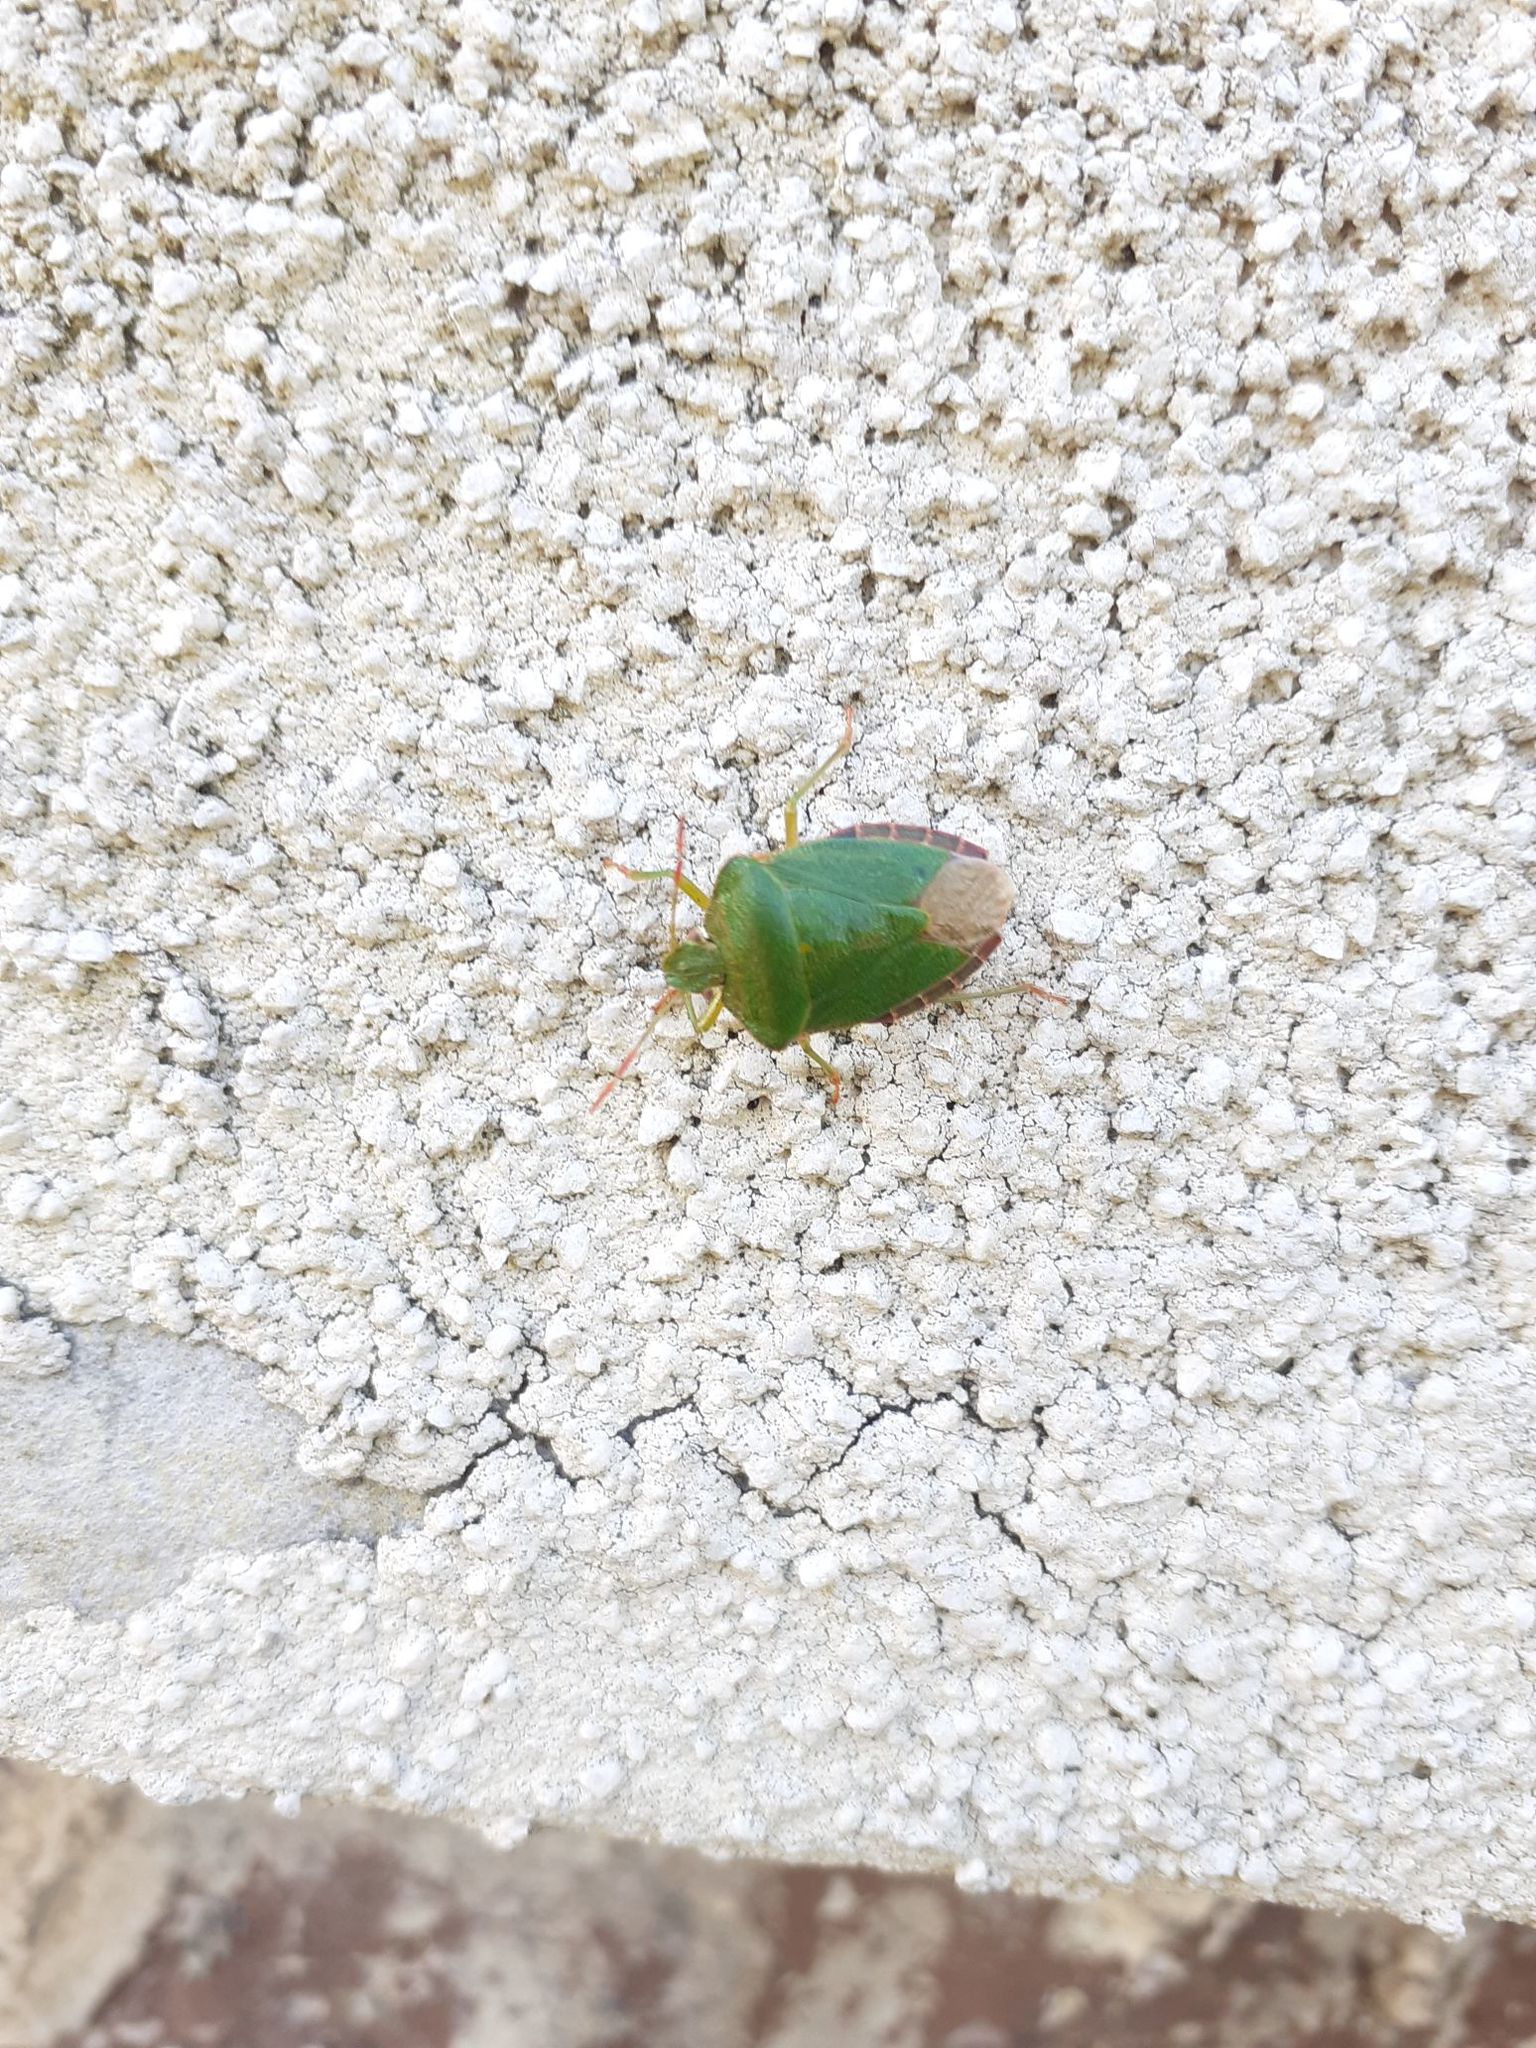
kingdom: Animalia
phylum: Arthropoda
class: Insecta
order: Hemiptera
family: Pentatomidae
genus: Palomena
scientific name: Palomena prasina
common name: Green shieldbug
